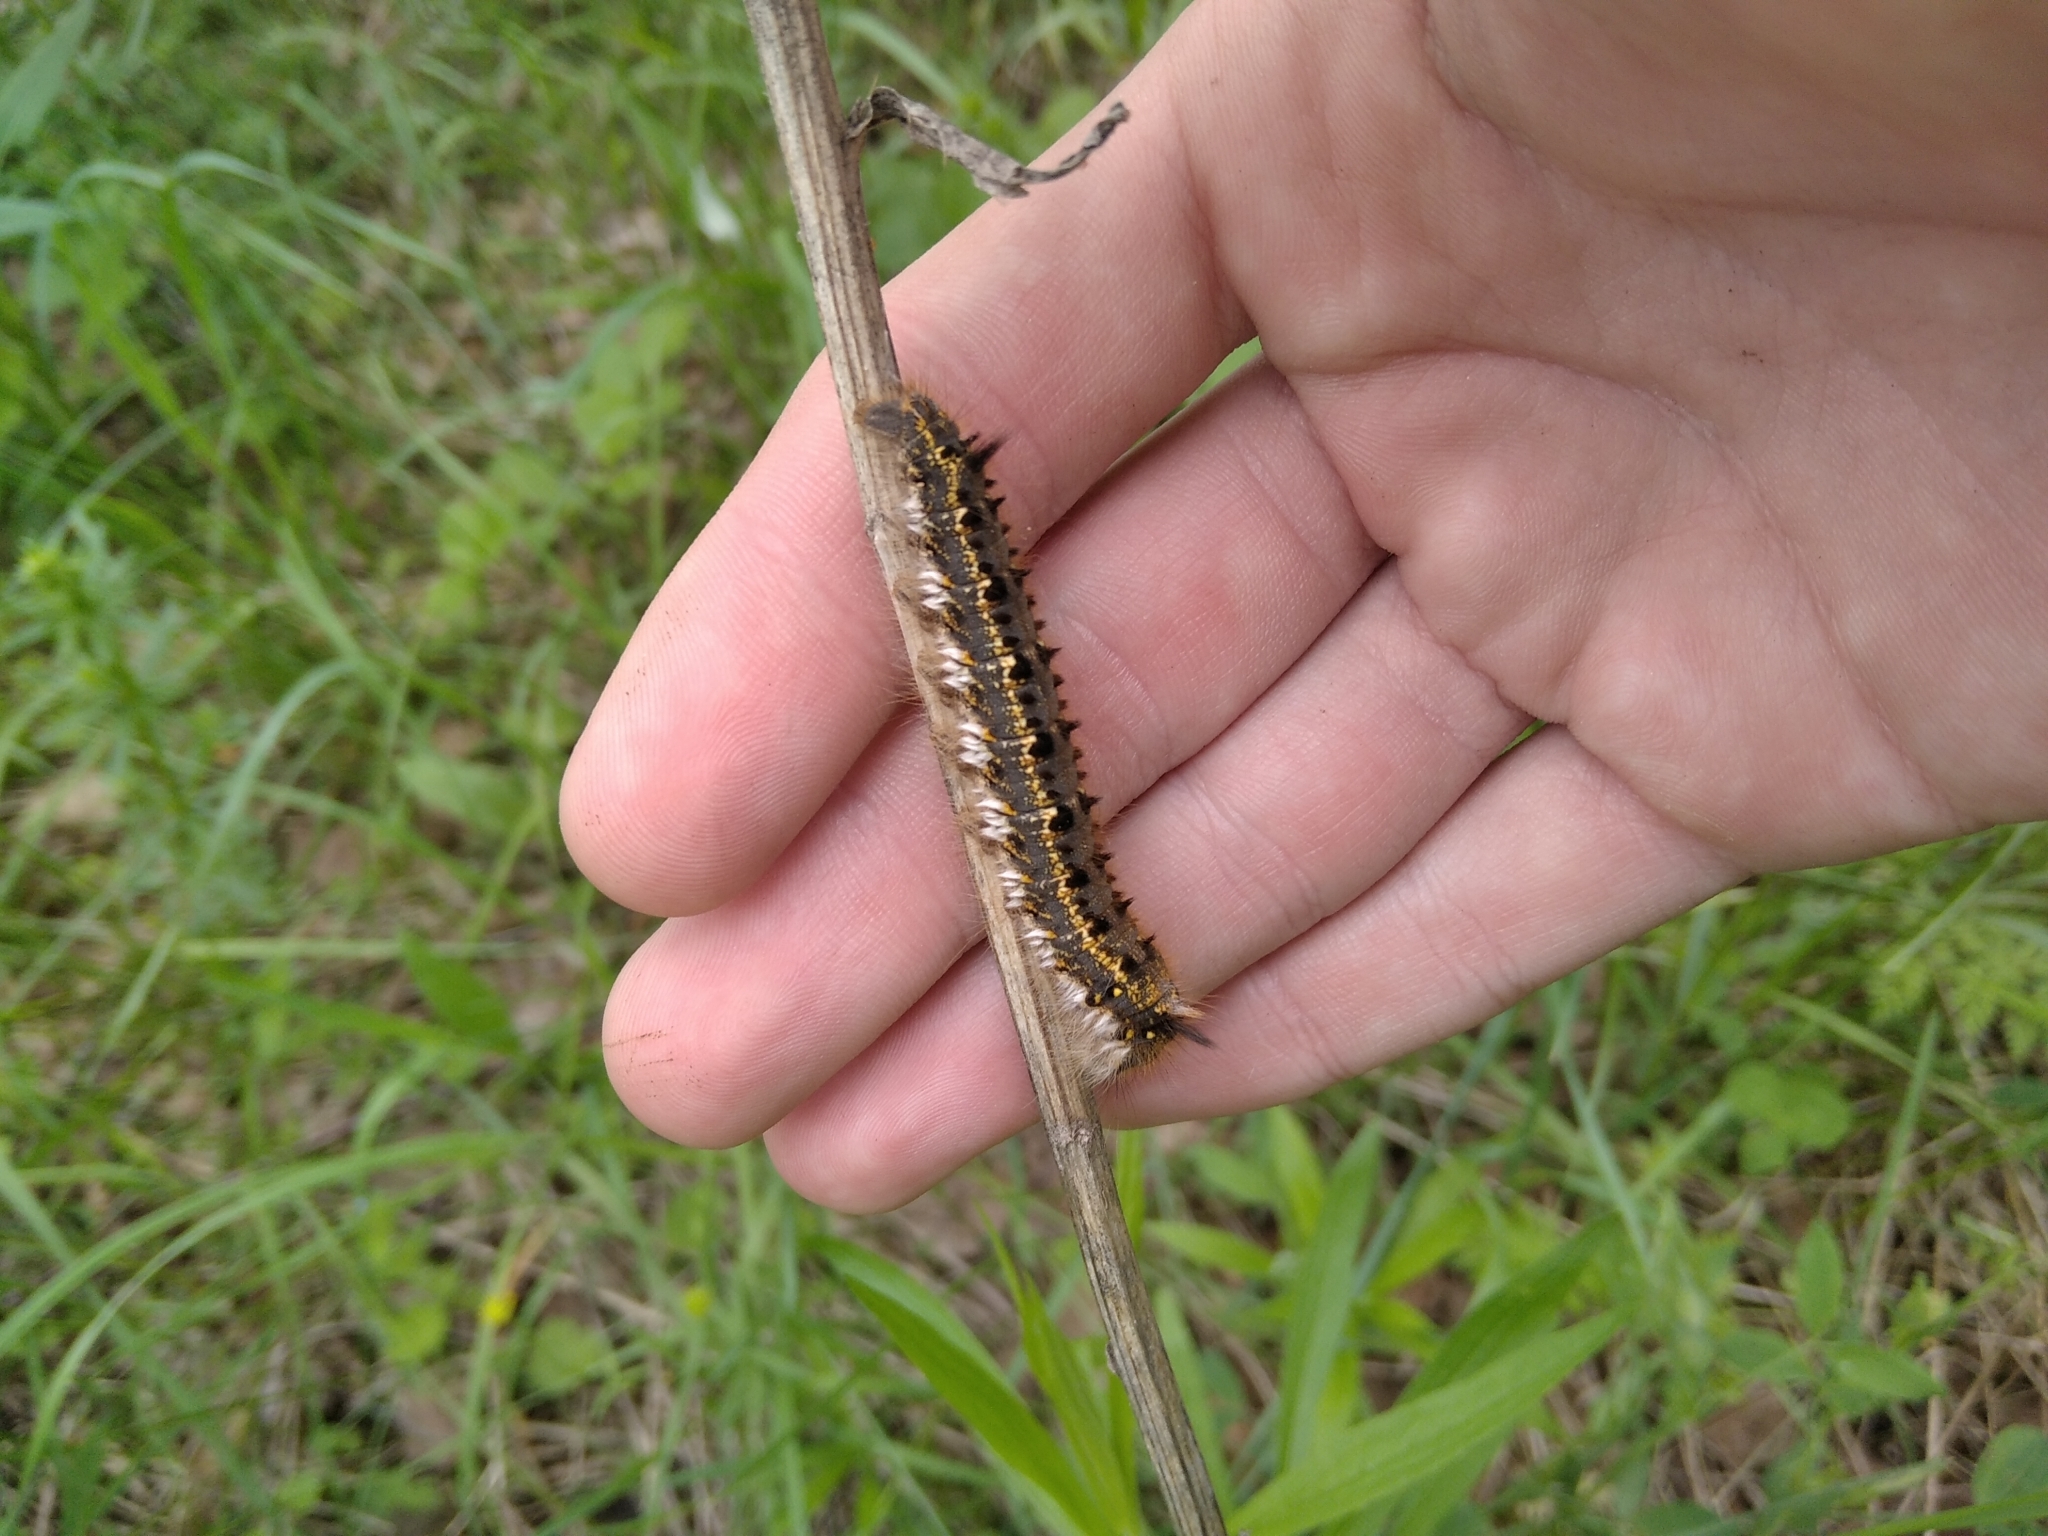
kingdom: Animalia
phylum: Arthropoda
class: Insecta
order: Lepidoptera
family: Lasiocampidae
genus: Euthrix
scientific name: Euthrix potatoria
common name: Drinker
